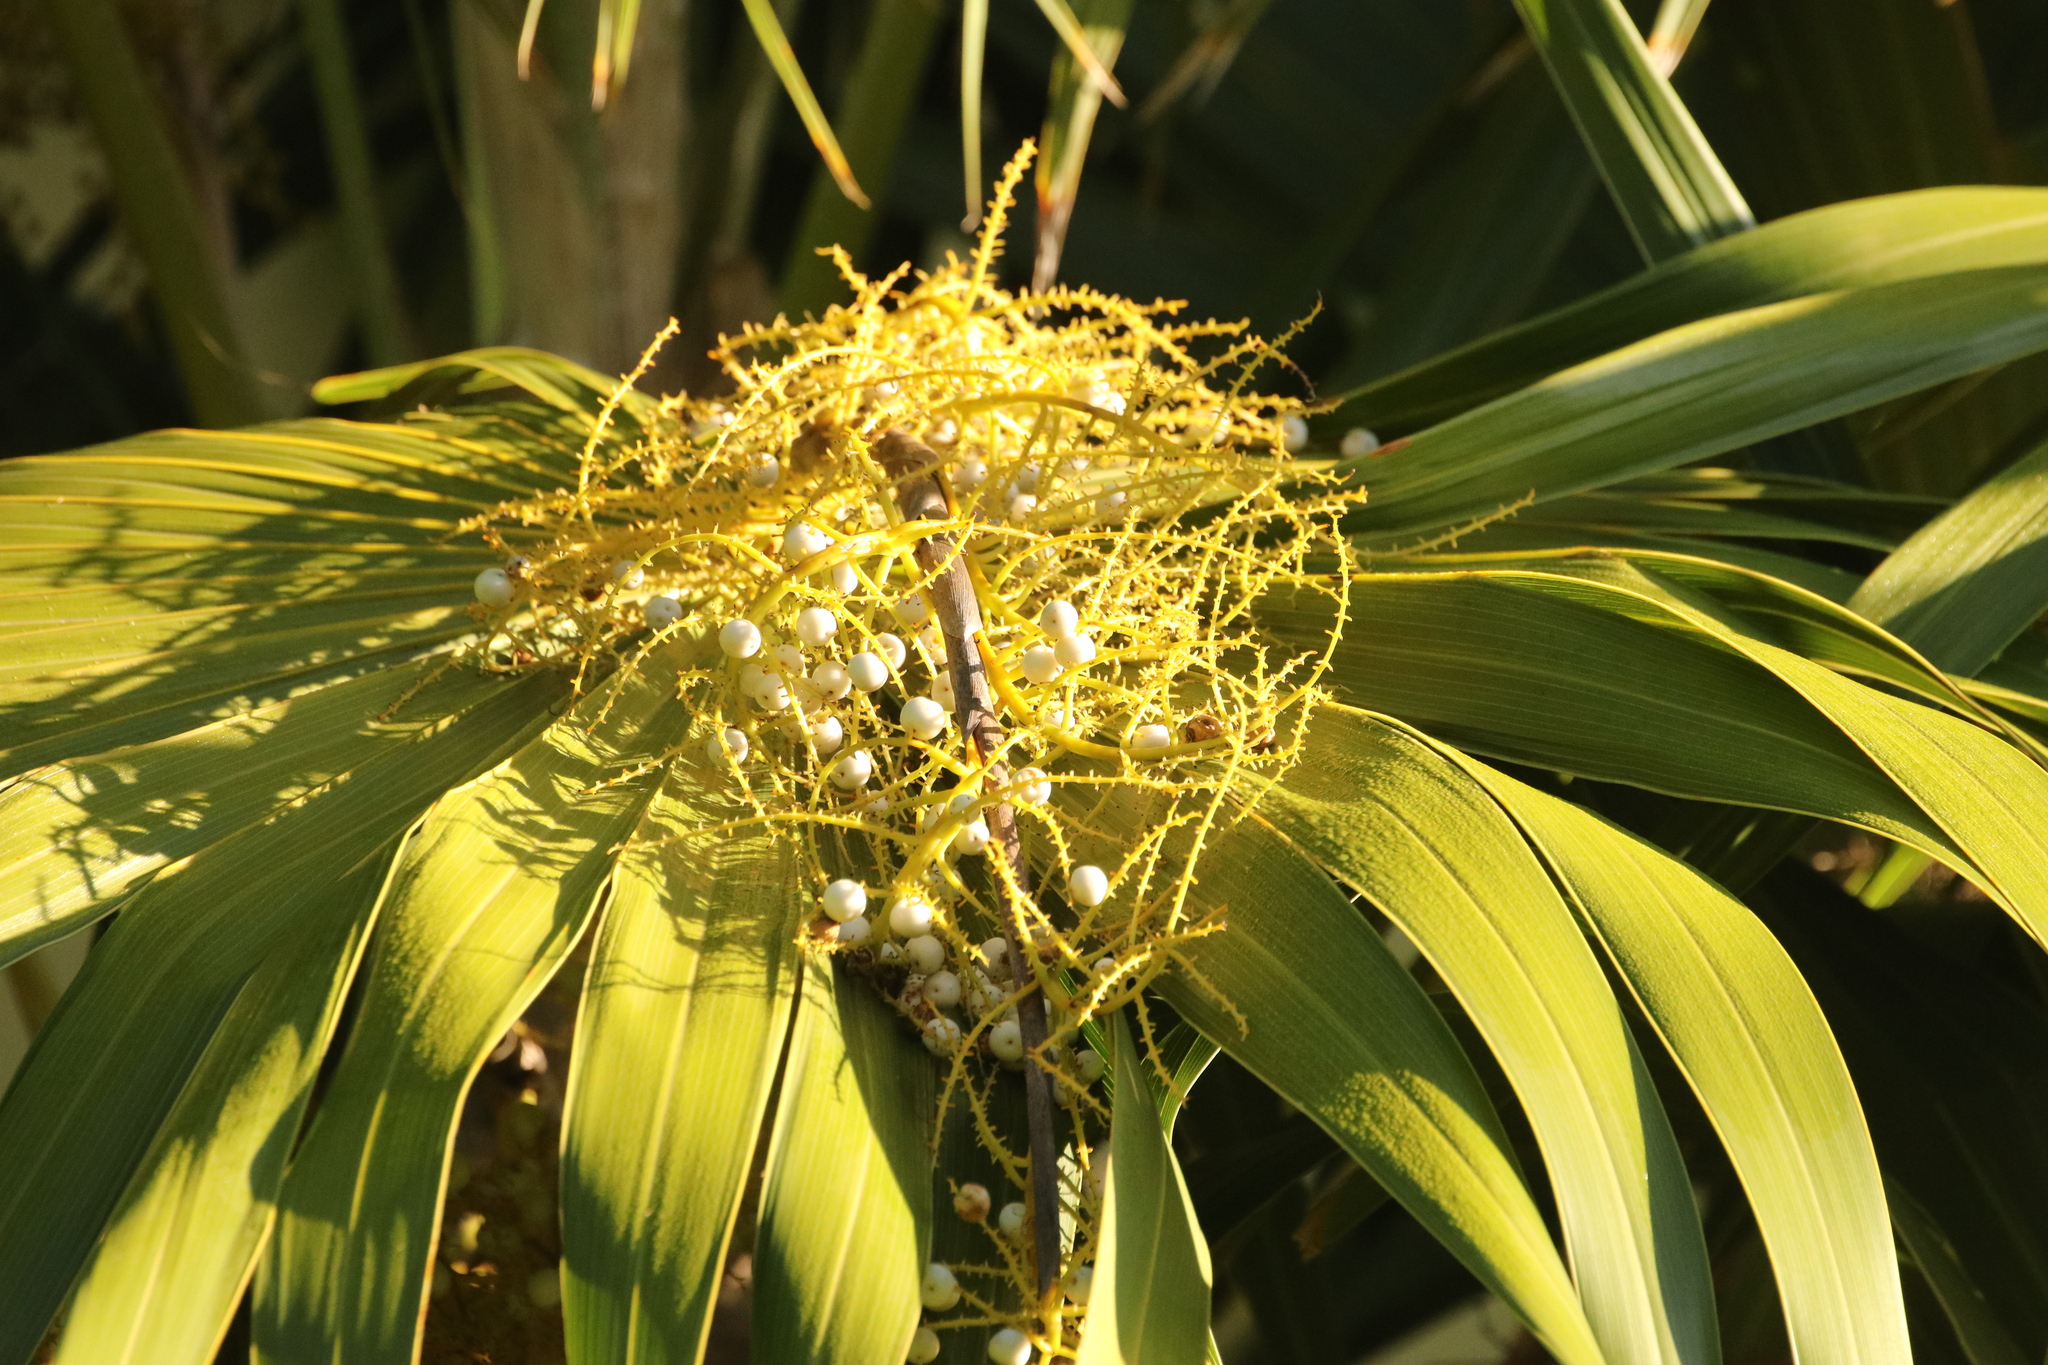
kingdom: Plantae
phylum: Tracheophyta
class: Liliopsida
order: Arecales
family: Arecaceae
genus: Thrinax
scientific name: Thrinax radiata
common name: Florida thatch
